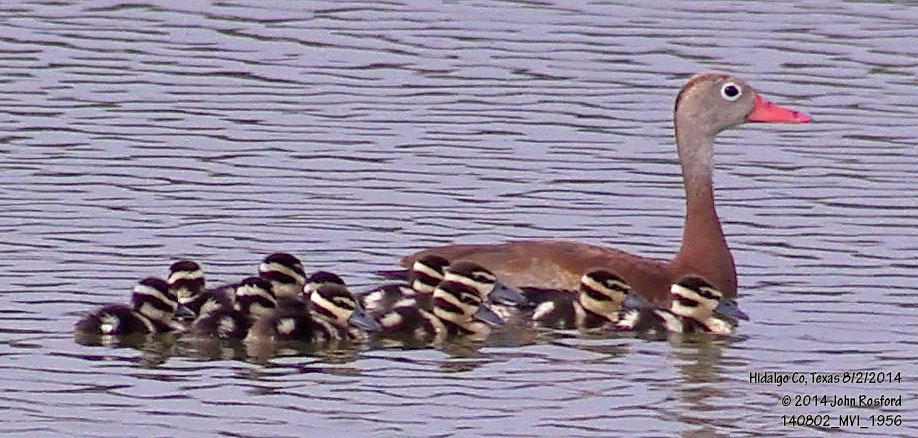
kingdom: Animalia
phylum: Chordata
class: Aves
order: Anseriformes
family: Anatidae
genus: Dendrocygna
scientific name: Dendrocygna autumnalis
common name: Black-bellied whistling duck
